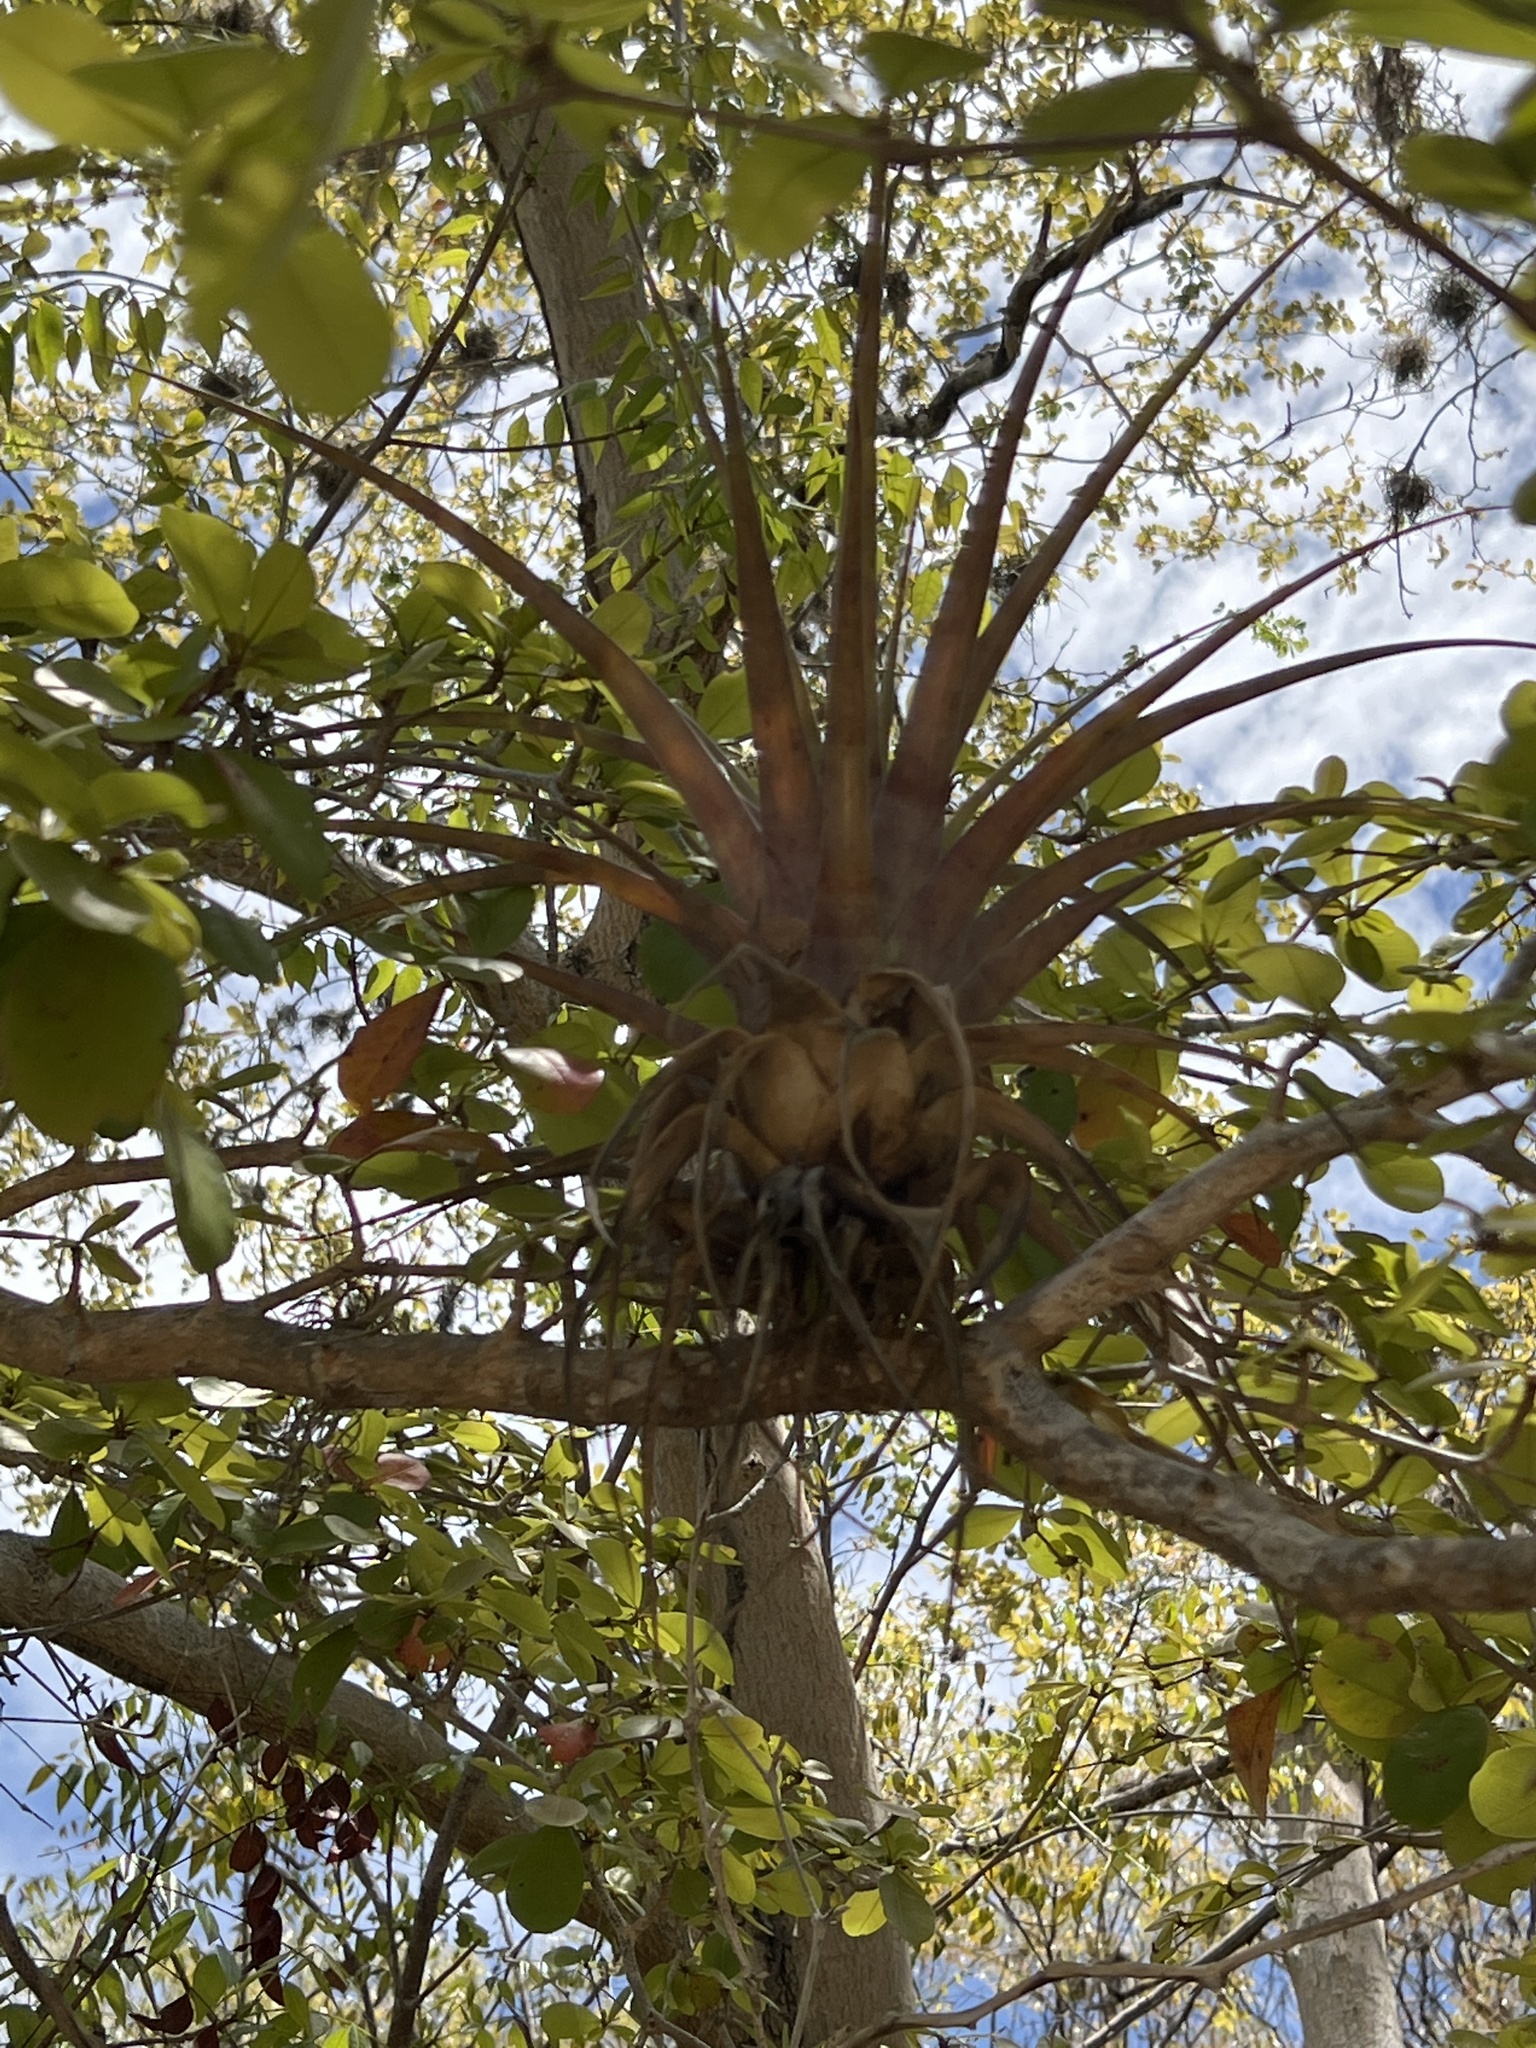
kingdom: Plantae
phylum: Tracheophyta
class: Liliopsida
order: Poales
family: Bromeliaceae
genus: Tillandsia
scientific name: Tillandsia utriculata
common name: Wild pine
